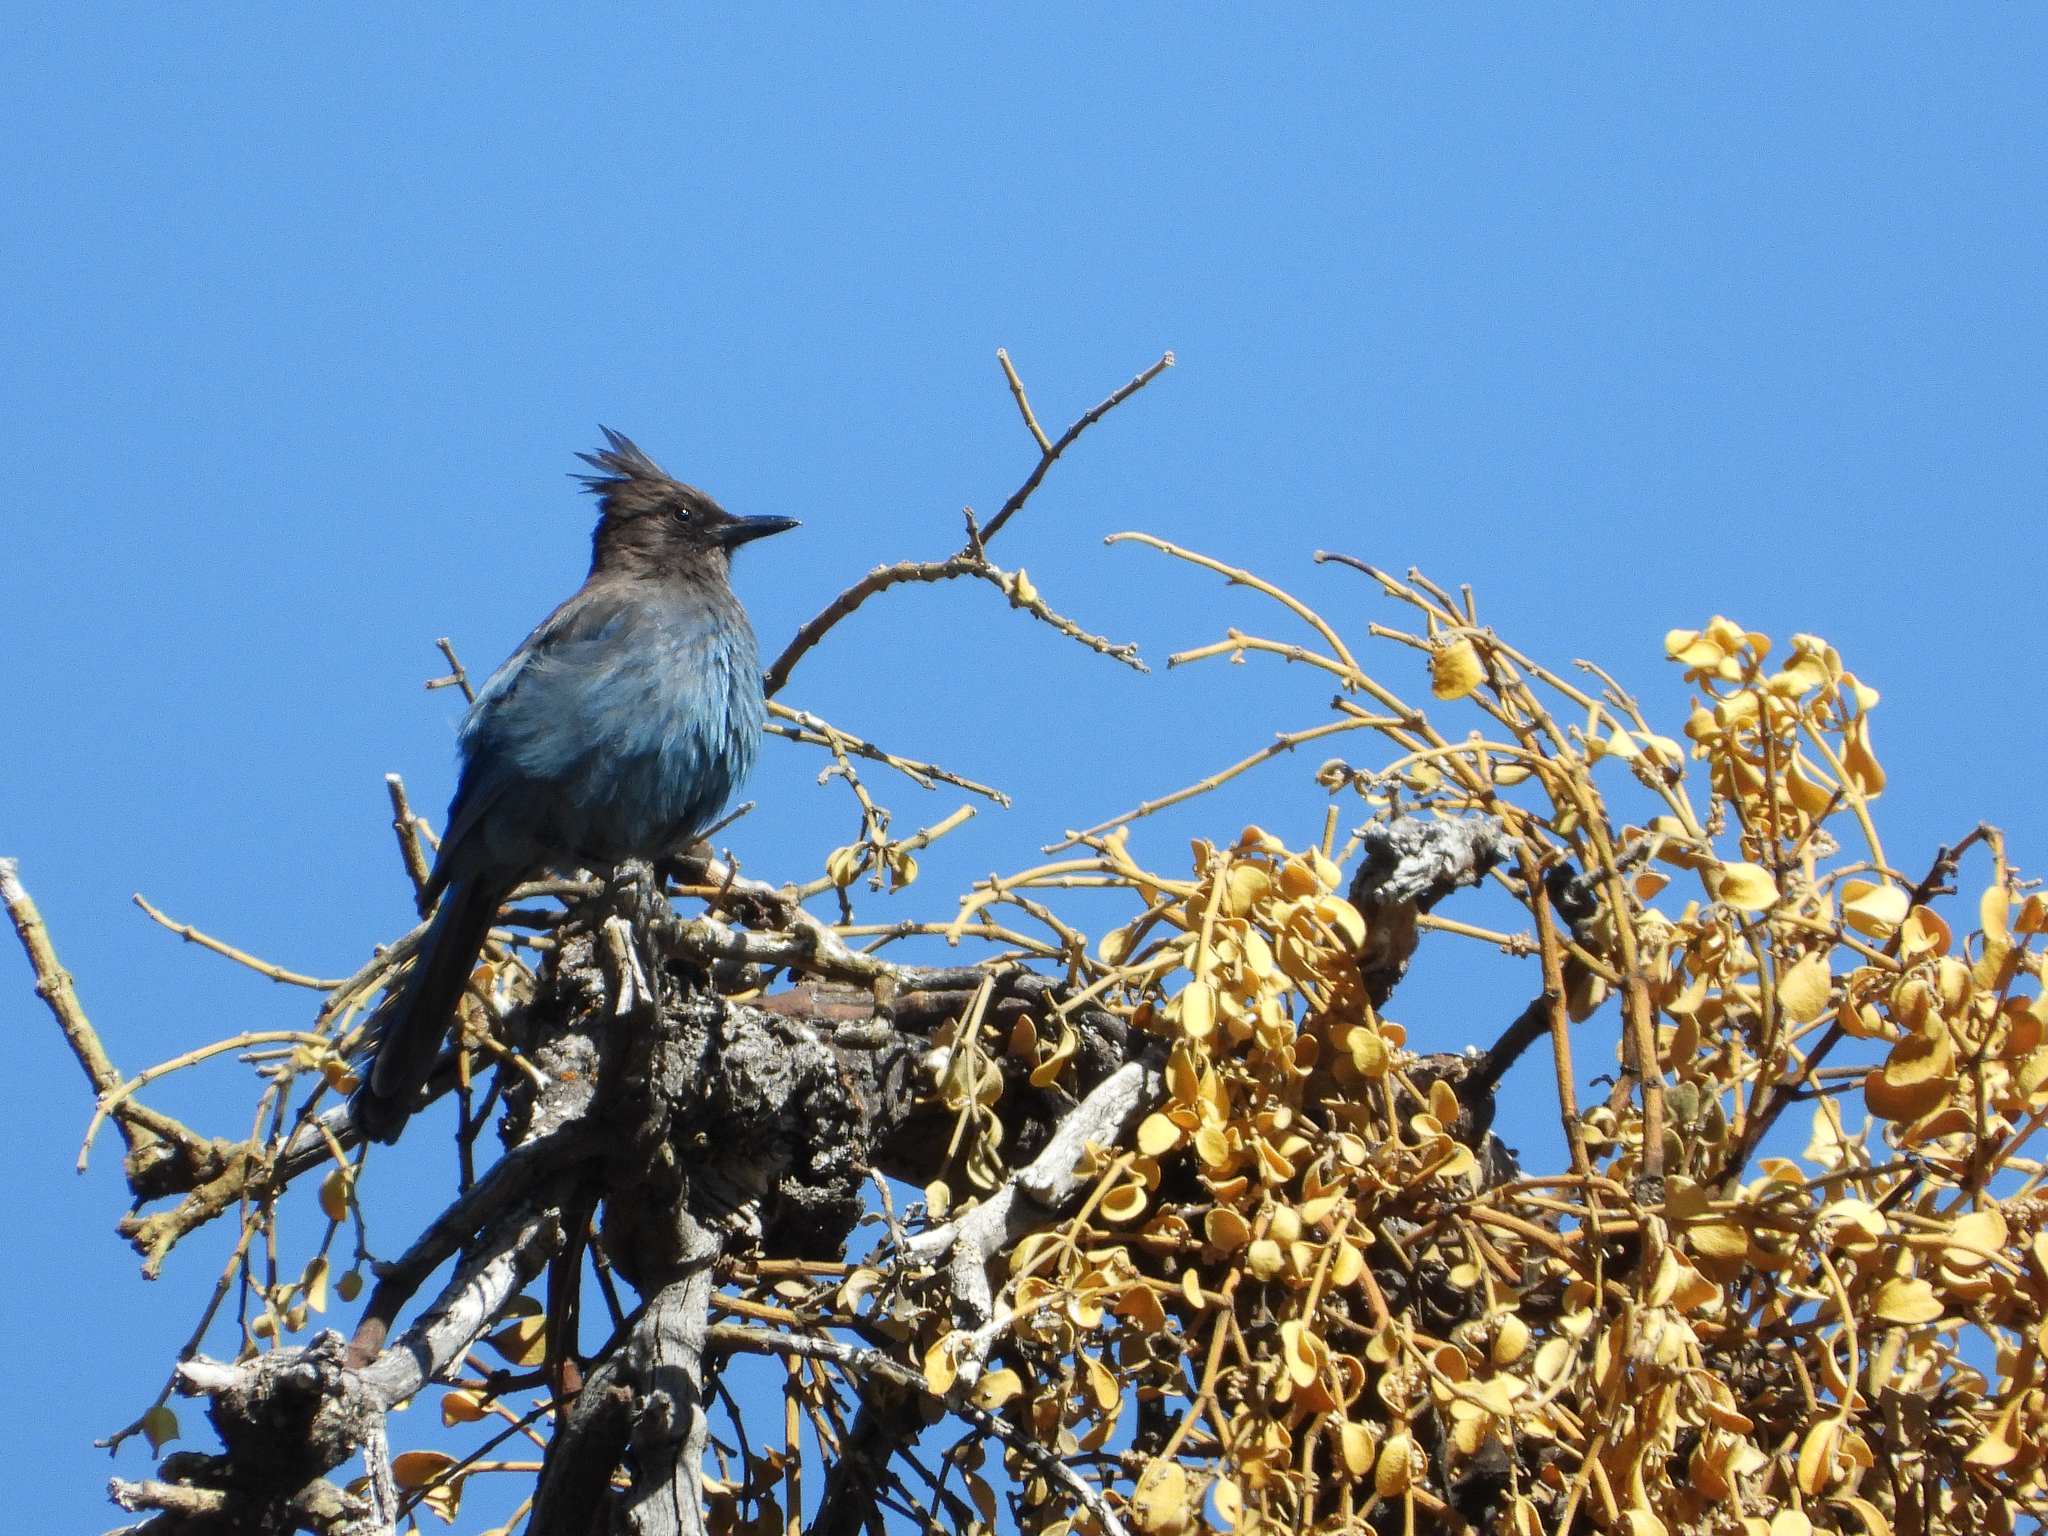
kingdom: Animalia
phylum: Chordata
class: Aves
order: Passeriformes
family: Corvidae
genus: Cyanocitta
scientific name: Cyanocitta stelleri
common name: Steller's jay
